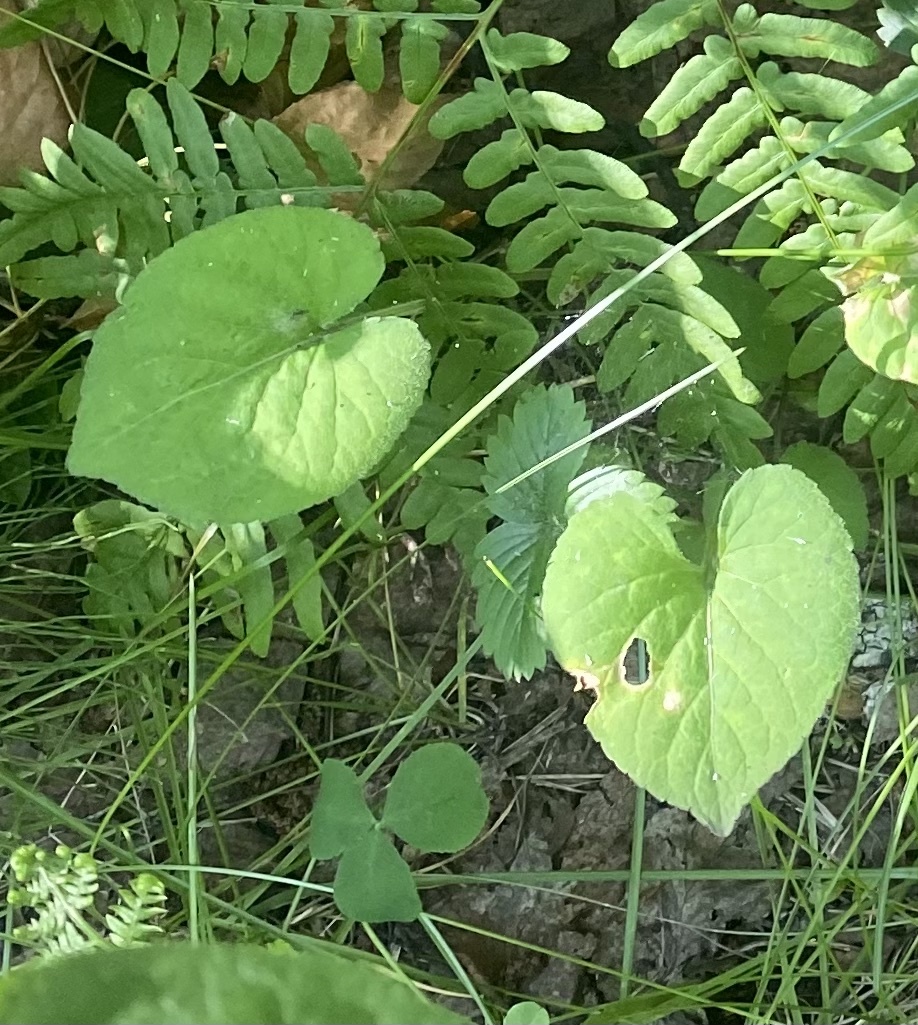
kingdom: Plantae
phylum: Tracheophyta
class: Magnoliopsida
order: Malpighiales
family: Violaceae
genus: Viola
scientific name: Viola collina
